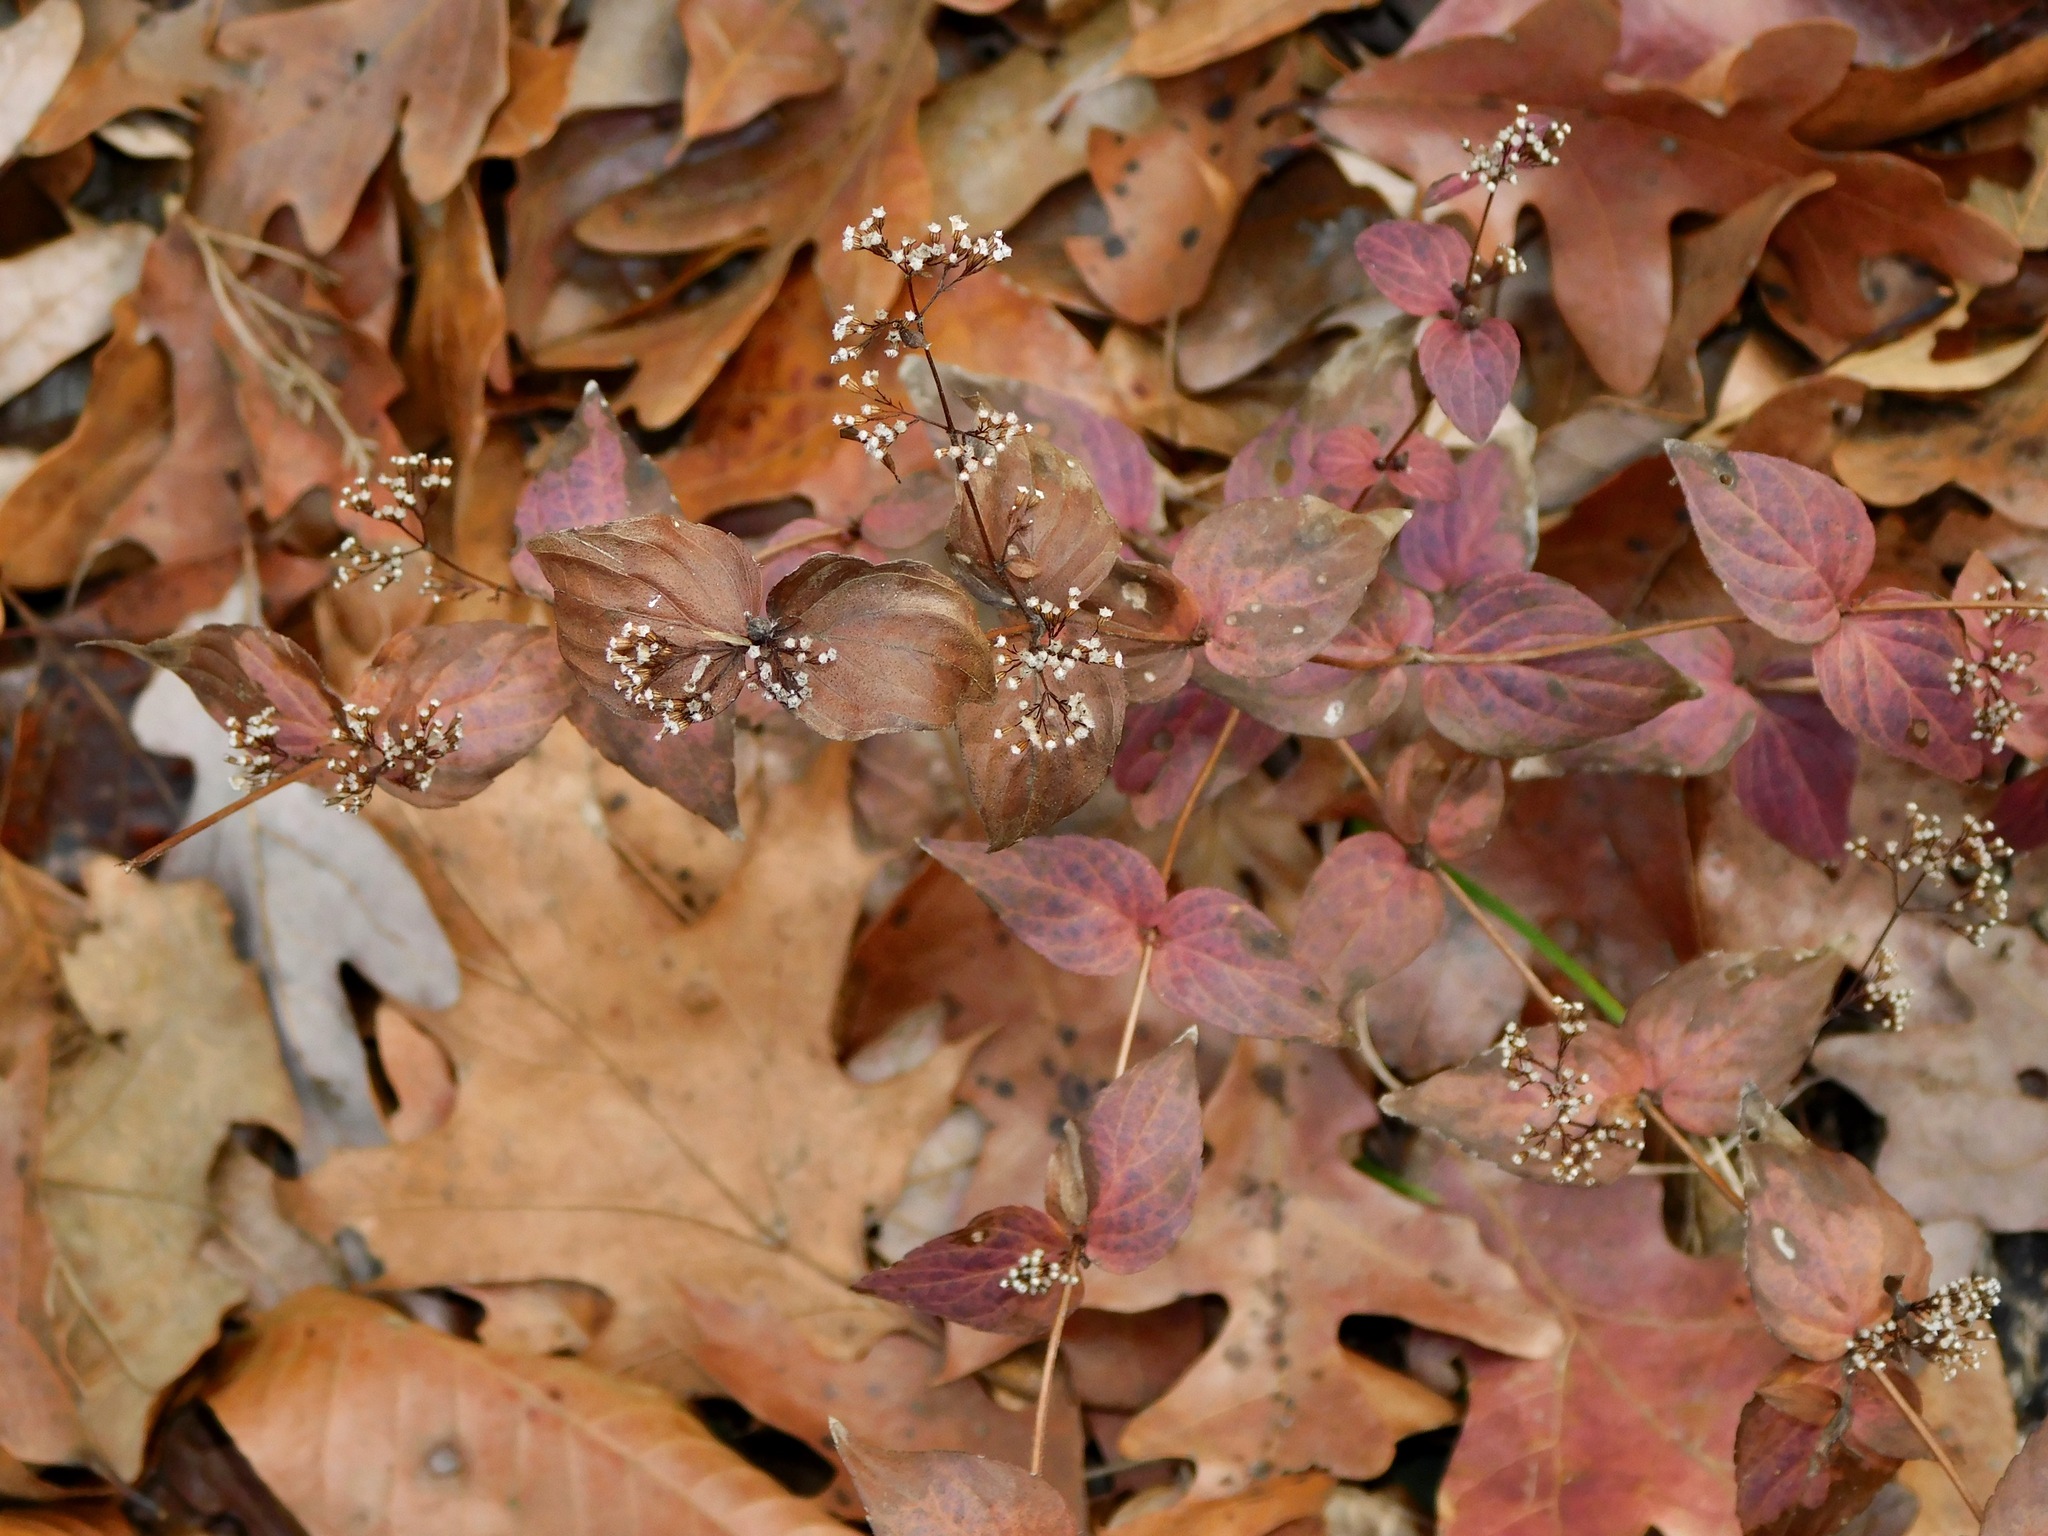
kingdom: Plantae
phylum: Tracheophyta
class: Magnoliopsida
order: Lamiales
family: Lamiaceae
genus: Cunila
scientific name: Cunila origanoides
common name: American dittany
